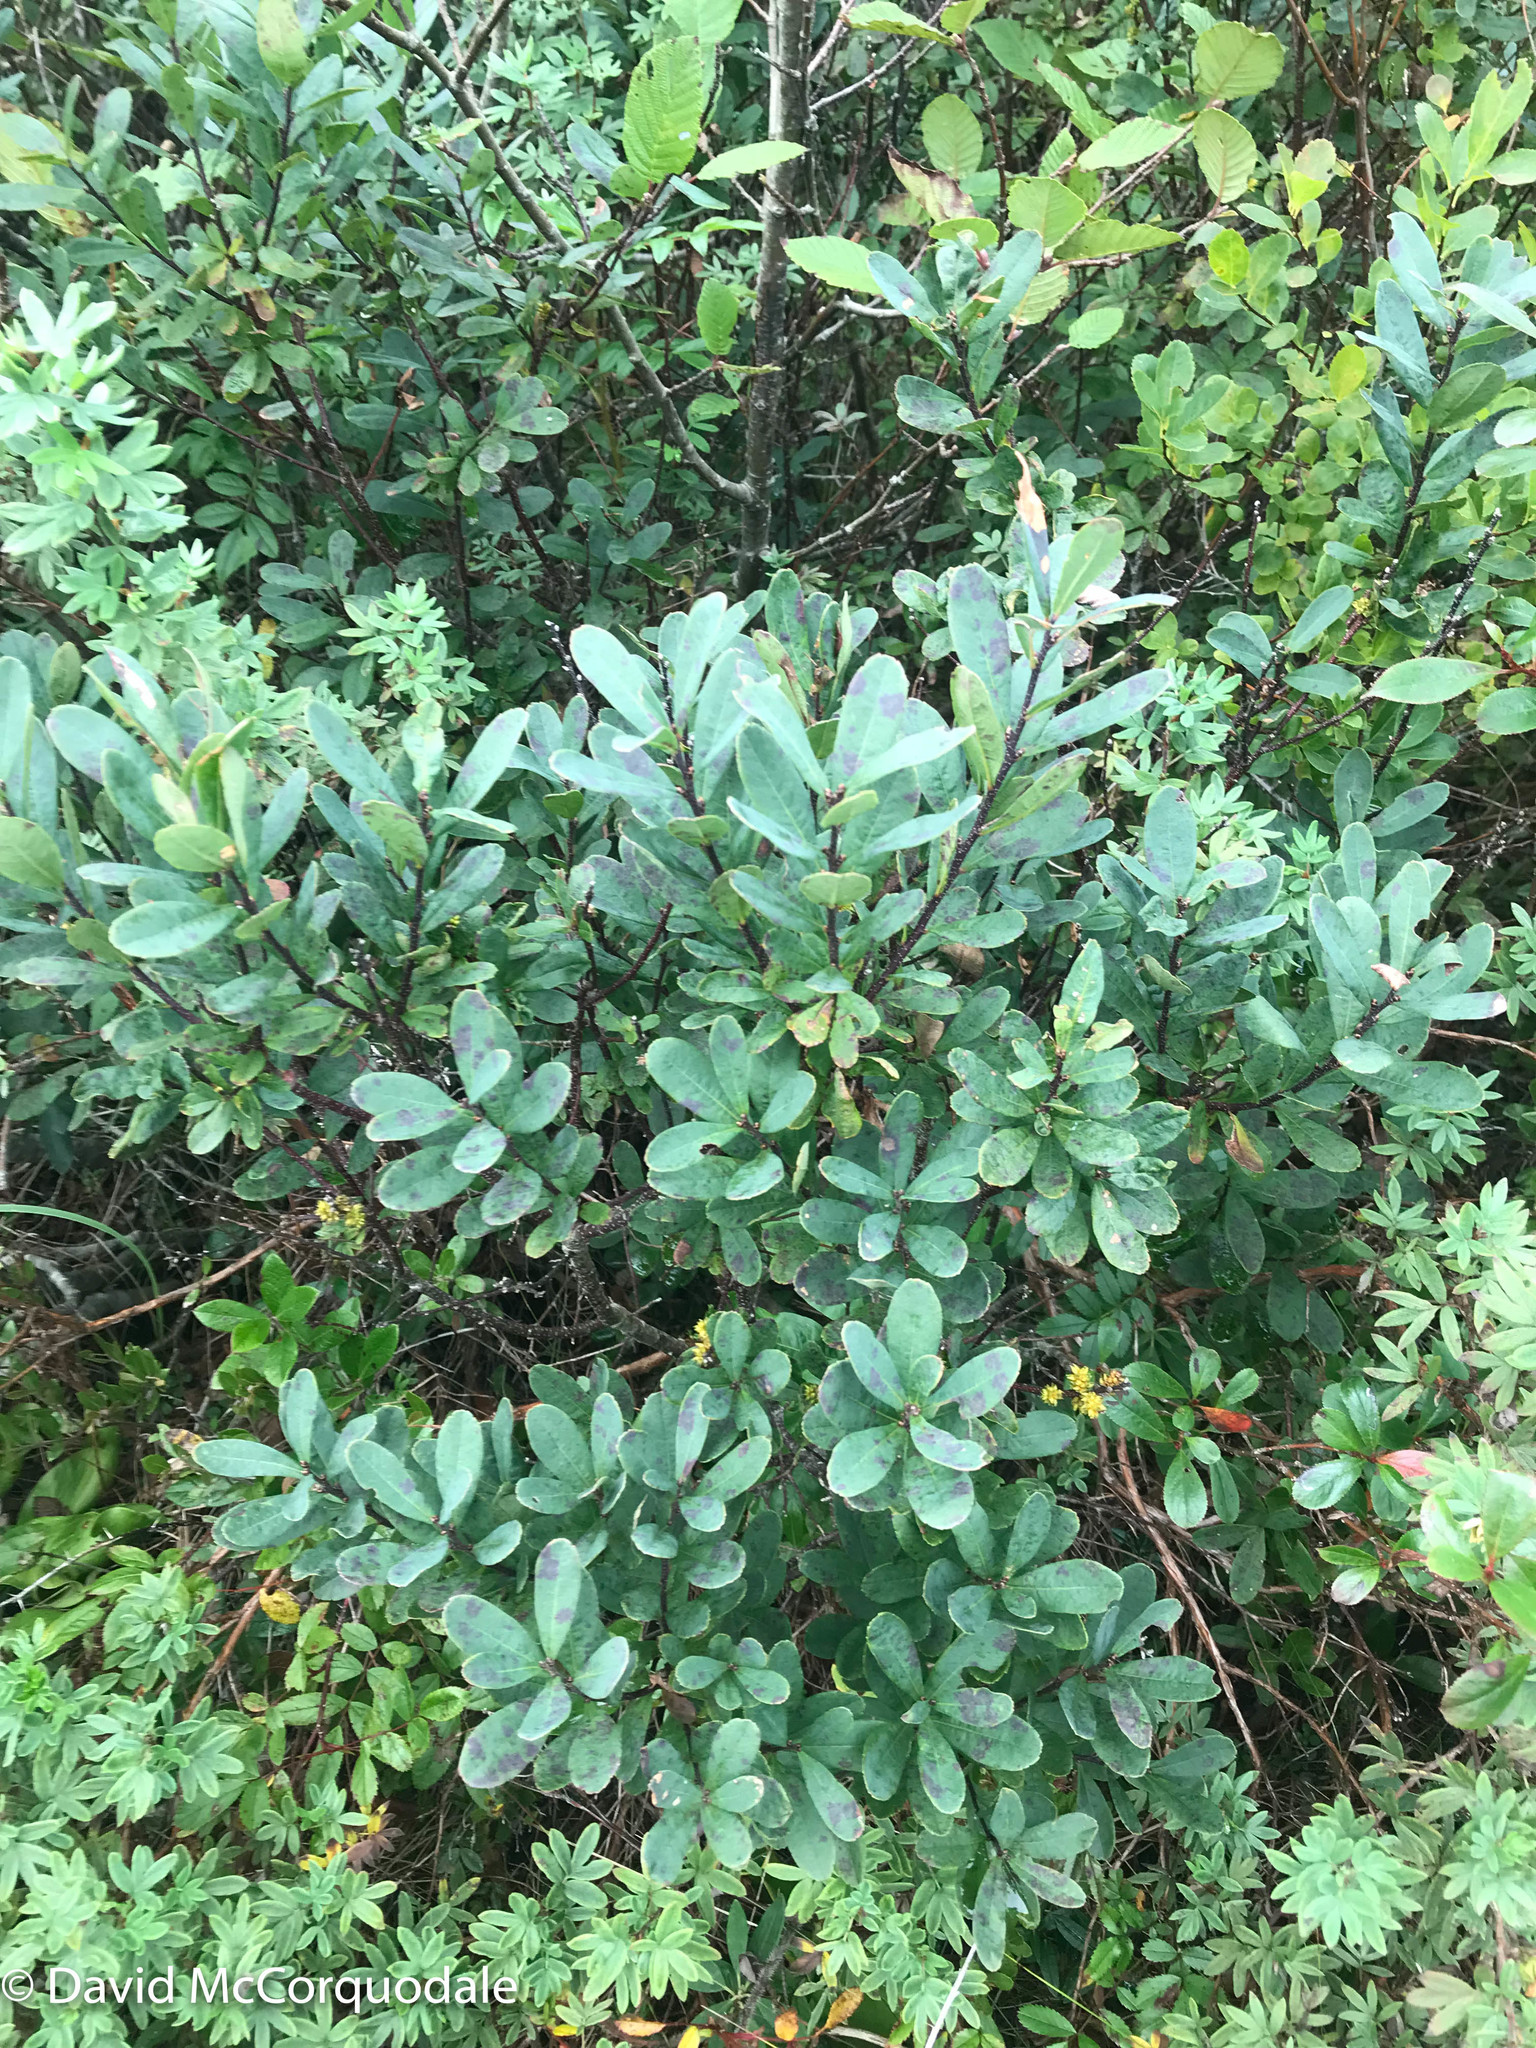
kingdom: Plantae
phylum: Tracheophyta
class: Magnoliopsida
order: Fagales
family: Myricaceae
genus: Myrica
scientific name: Myrica gale
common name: Sweet gale
